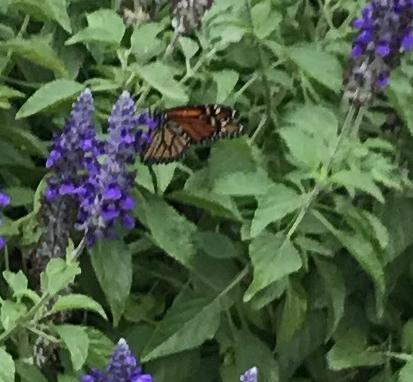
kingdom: Animalia
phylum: Arthropoda
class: Insecta
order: Lepidoptera
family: Nymphalidae
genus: Danaus
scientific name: Danaus plexippus
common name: Monarch
